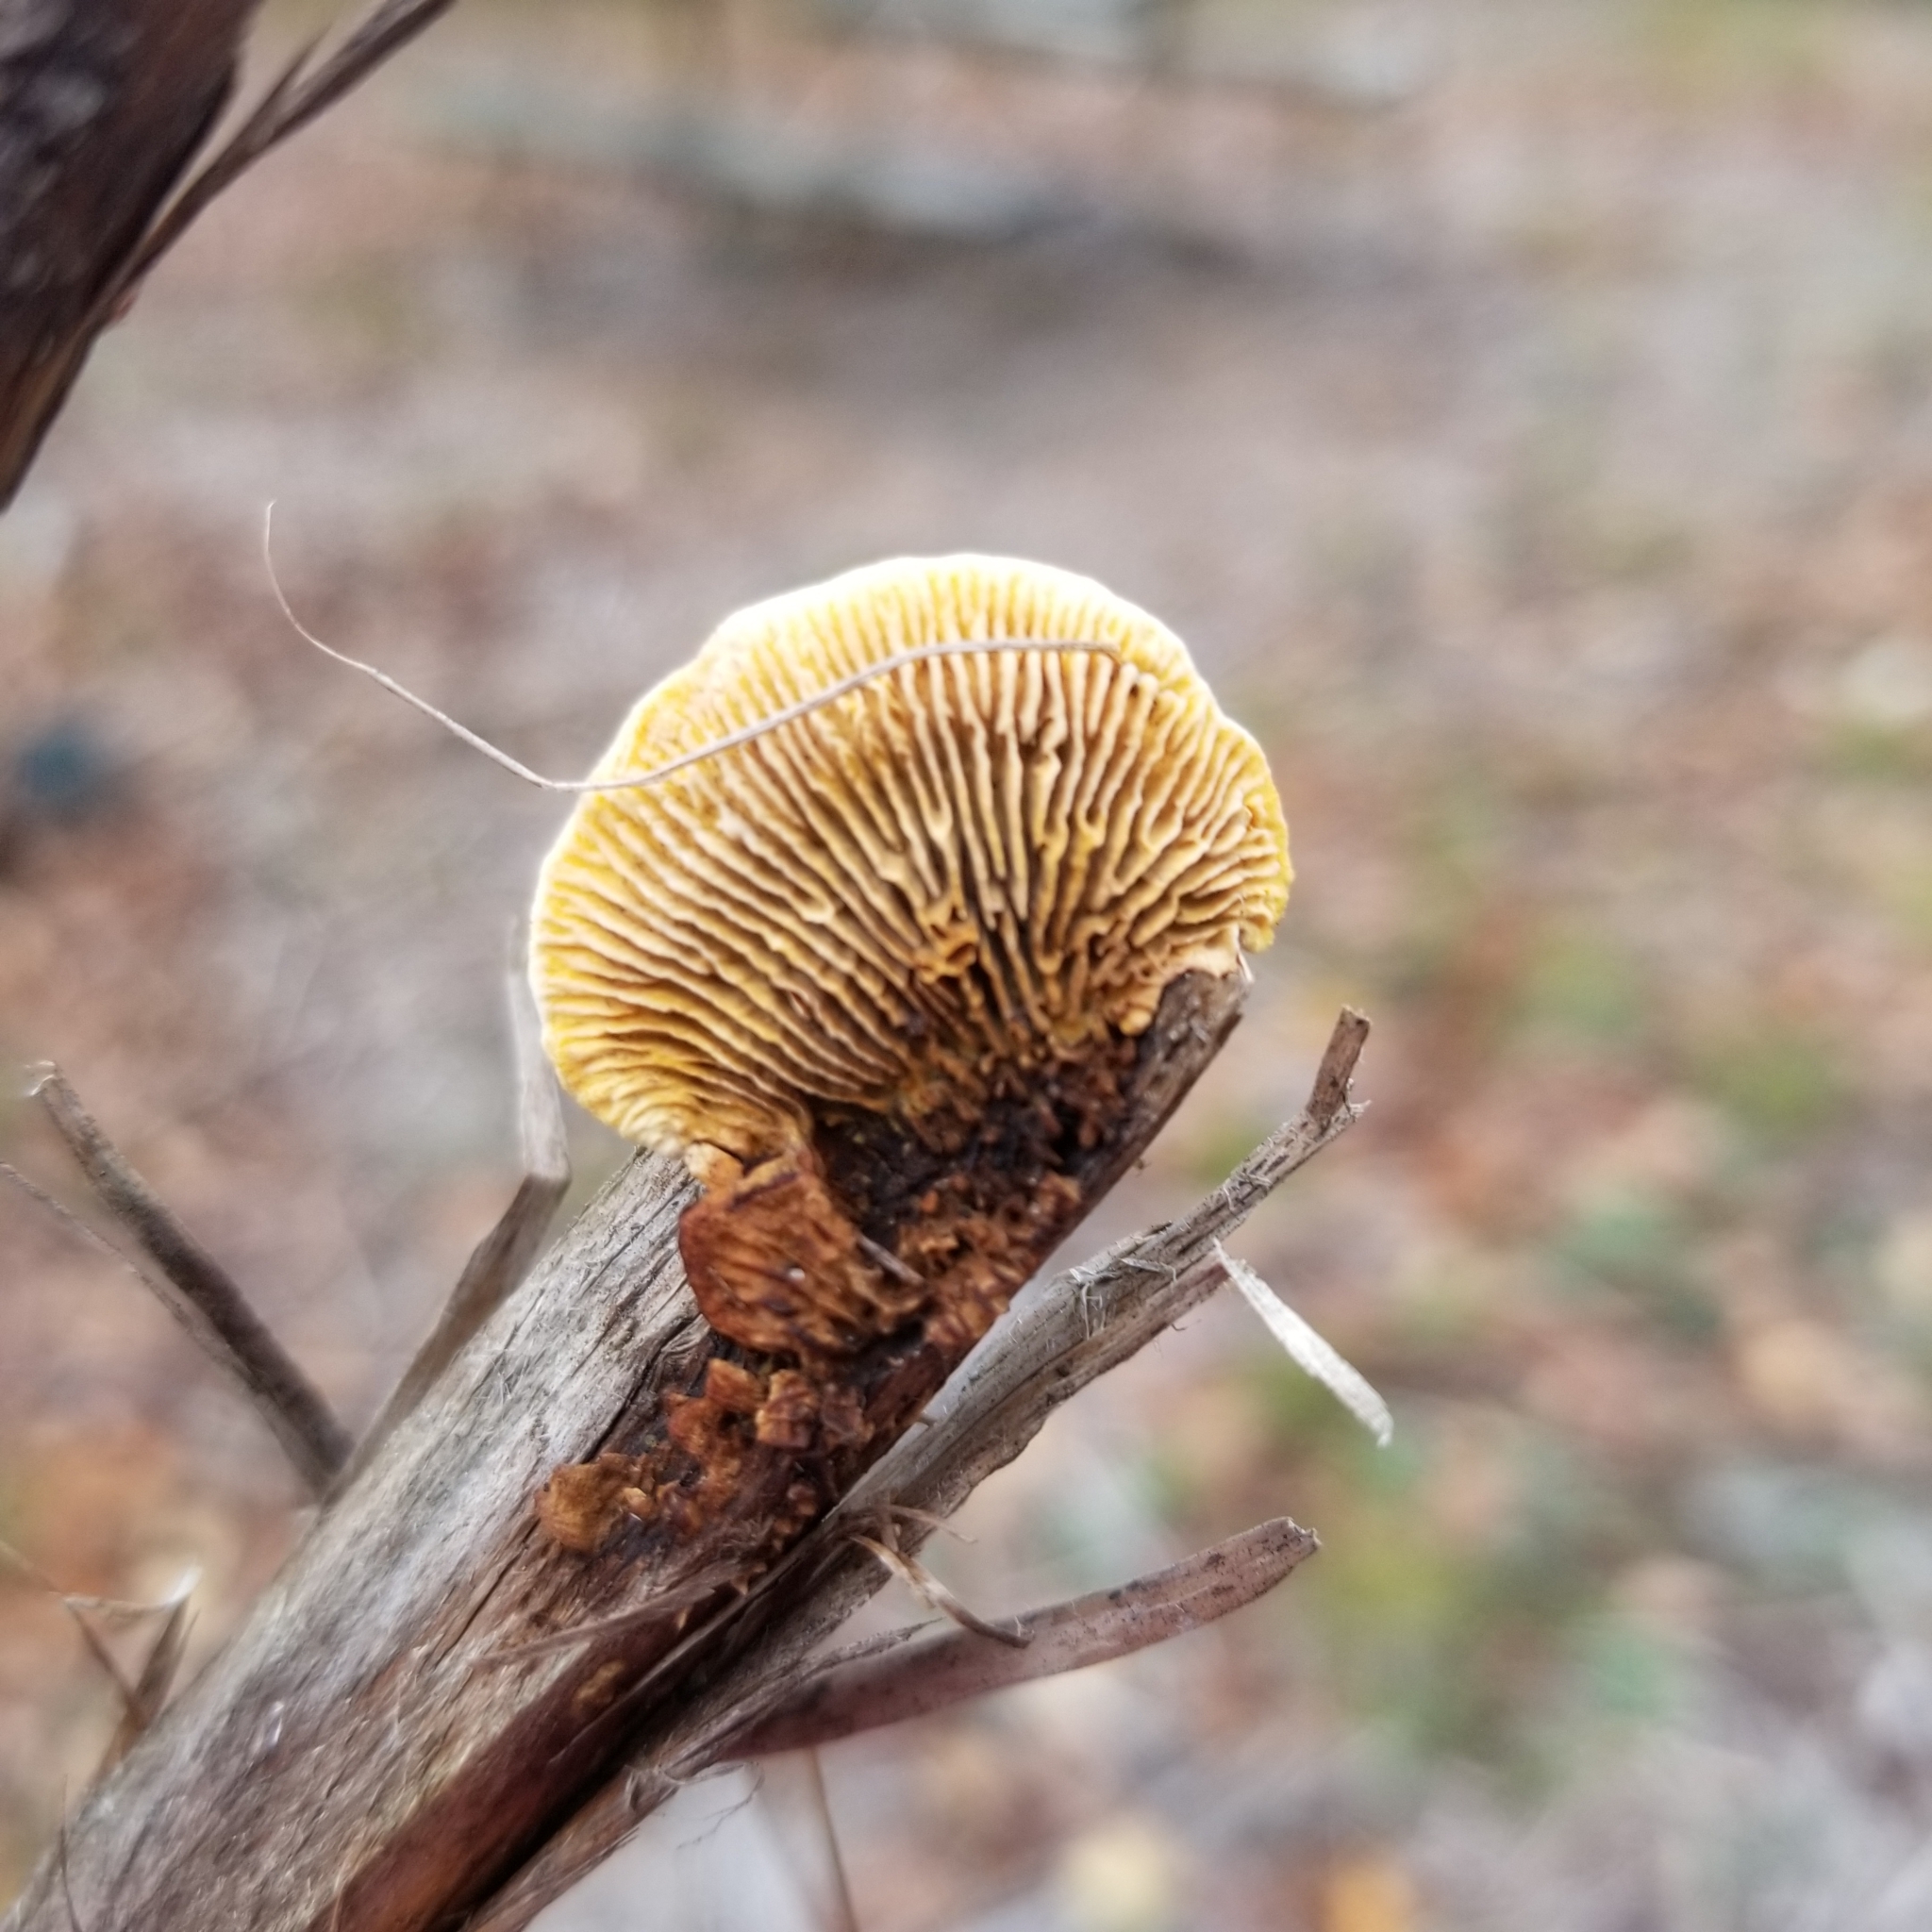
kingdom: Fungi
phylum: Basidiomycota
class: Agaricomycetes
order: Gloeophyllales
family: Gloeophyllaceae
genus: Gloeophyllum
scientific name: Gloeophyllum sepiarium
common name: Conifer mazegill
